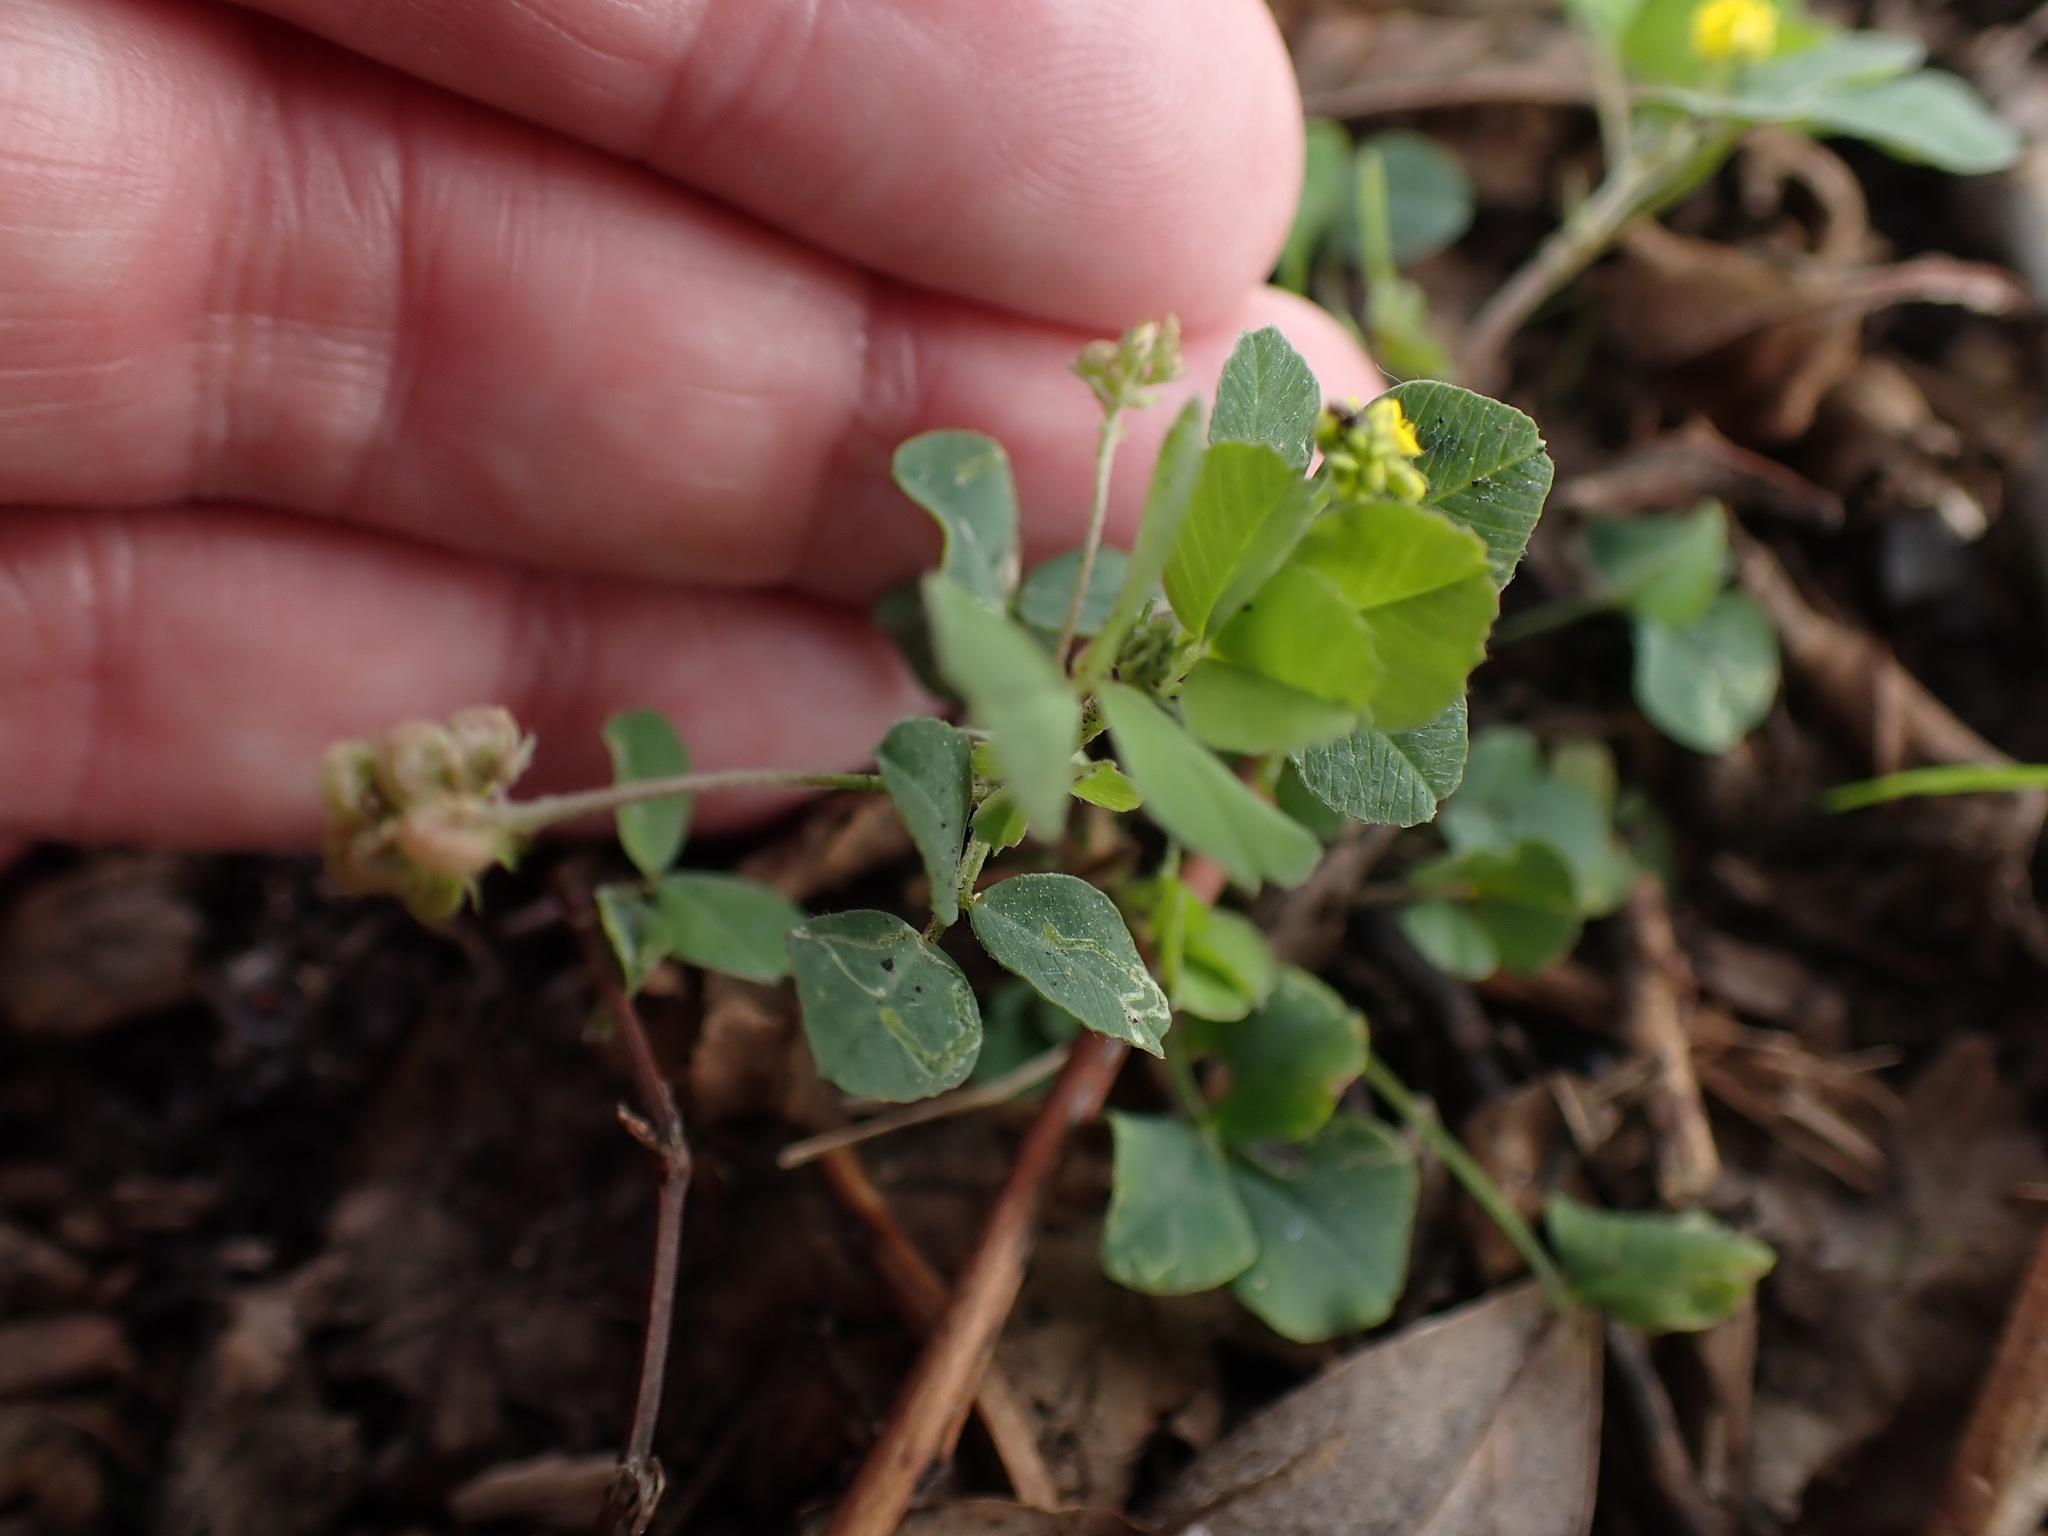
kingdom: Plantae
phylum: Tracheophyta
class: Magnoliopsida
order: Fabales
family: Fabaceae
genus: Medicago
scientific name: Medicago lupulina
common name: Black medick
